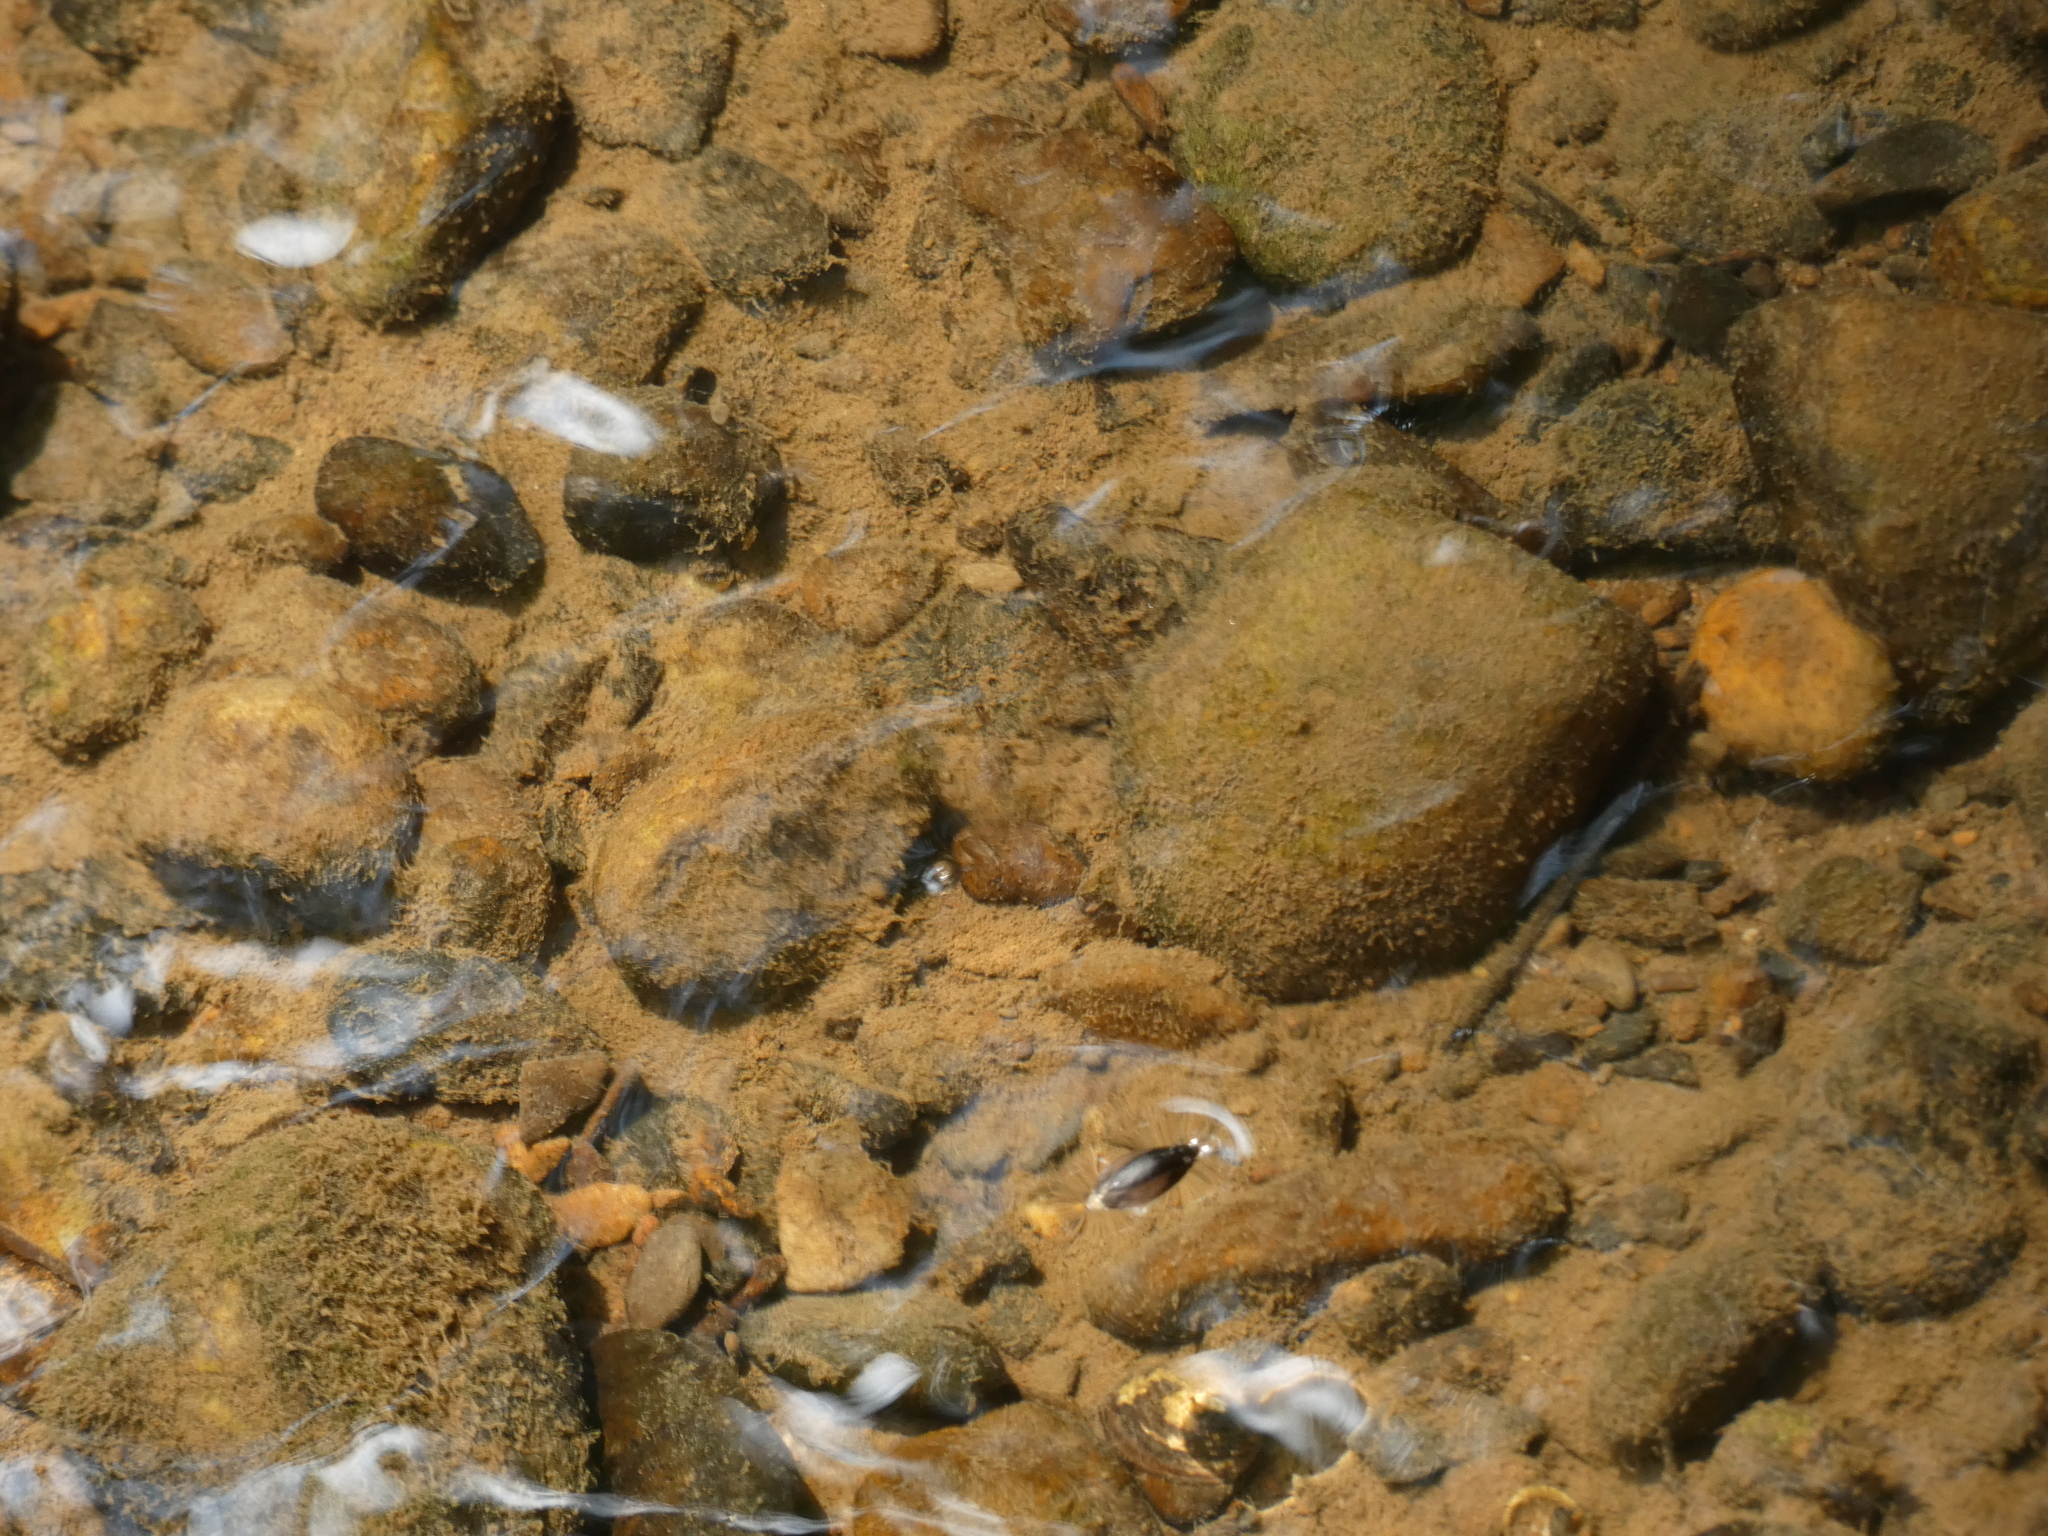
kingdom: Animalia
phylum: Arthropoda
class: Insecta
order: Coleoptera
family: Gyrinidae
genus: Dineutus
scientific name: Dineutus
